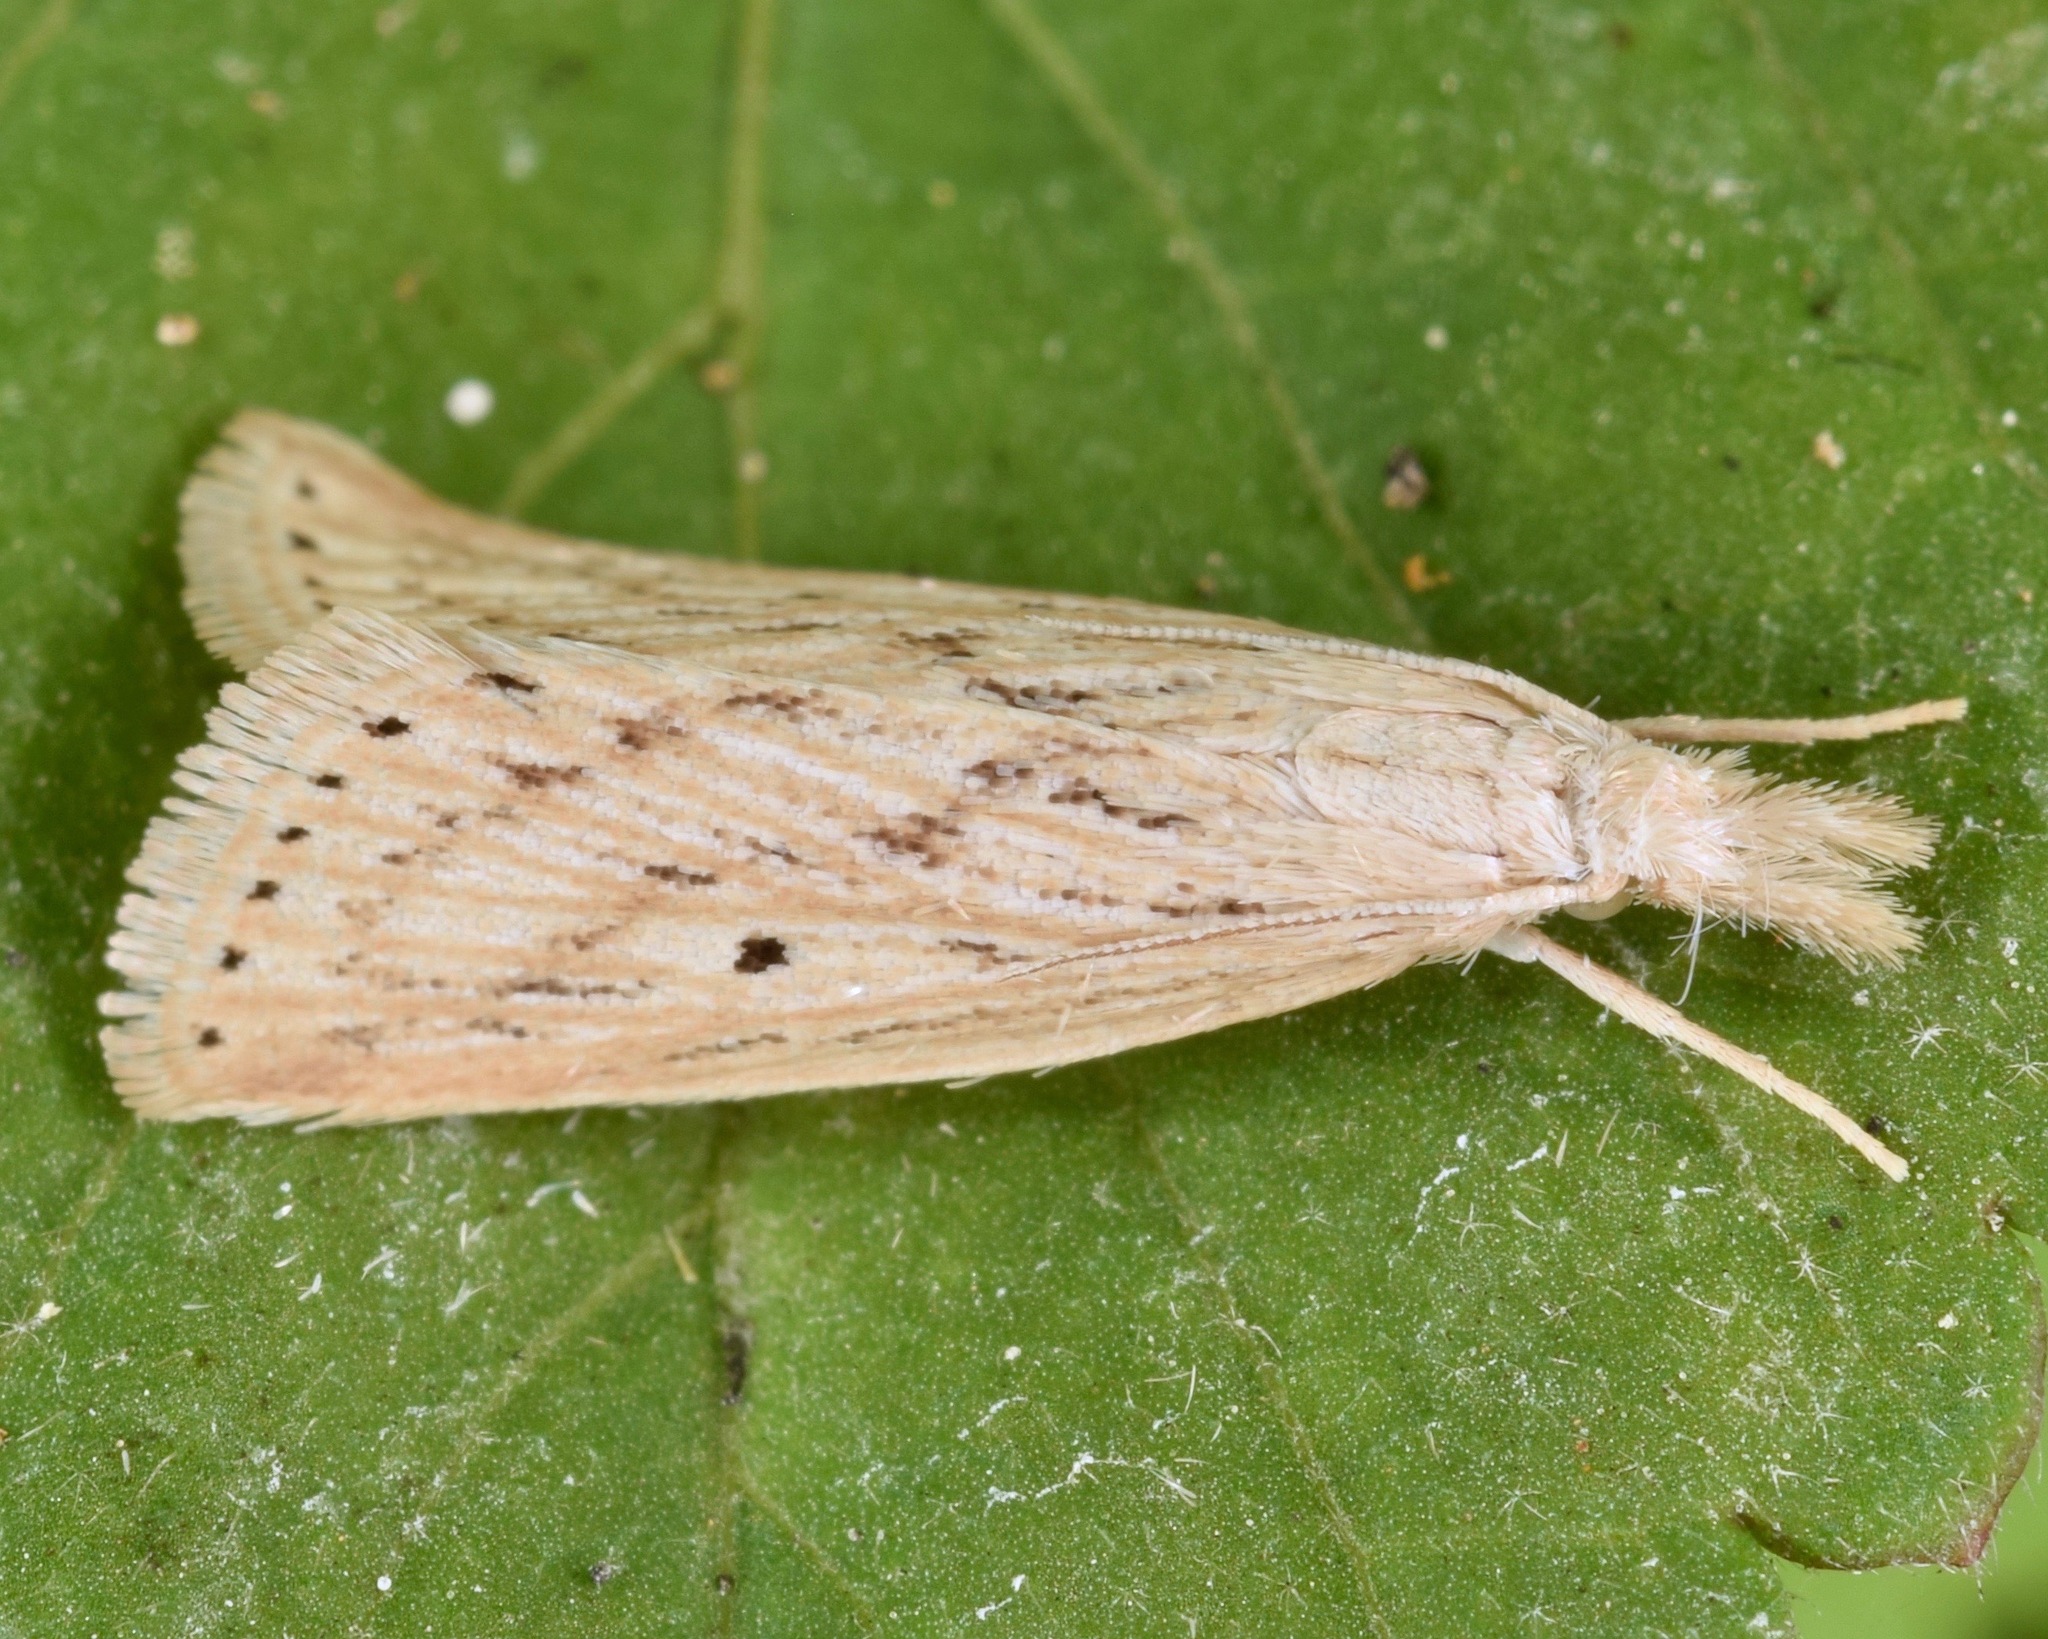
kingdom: Animalia
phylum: Arthropoda
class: Insecta
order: Lepidoptera
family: Crambidae
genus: Diatraea
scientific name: Diatraea lisetta
